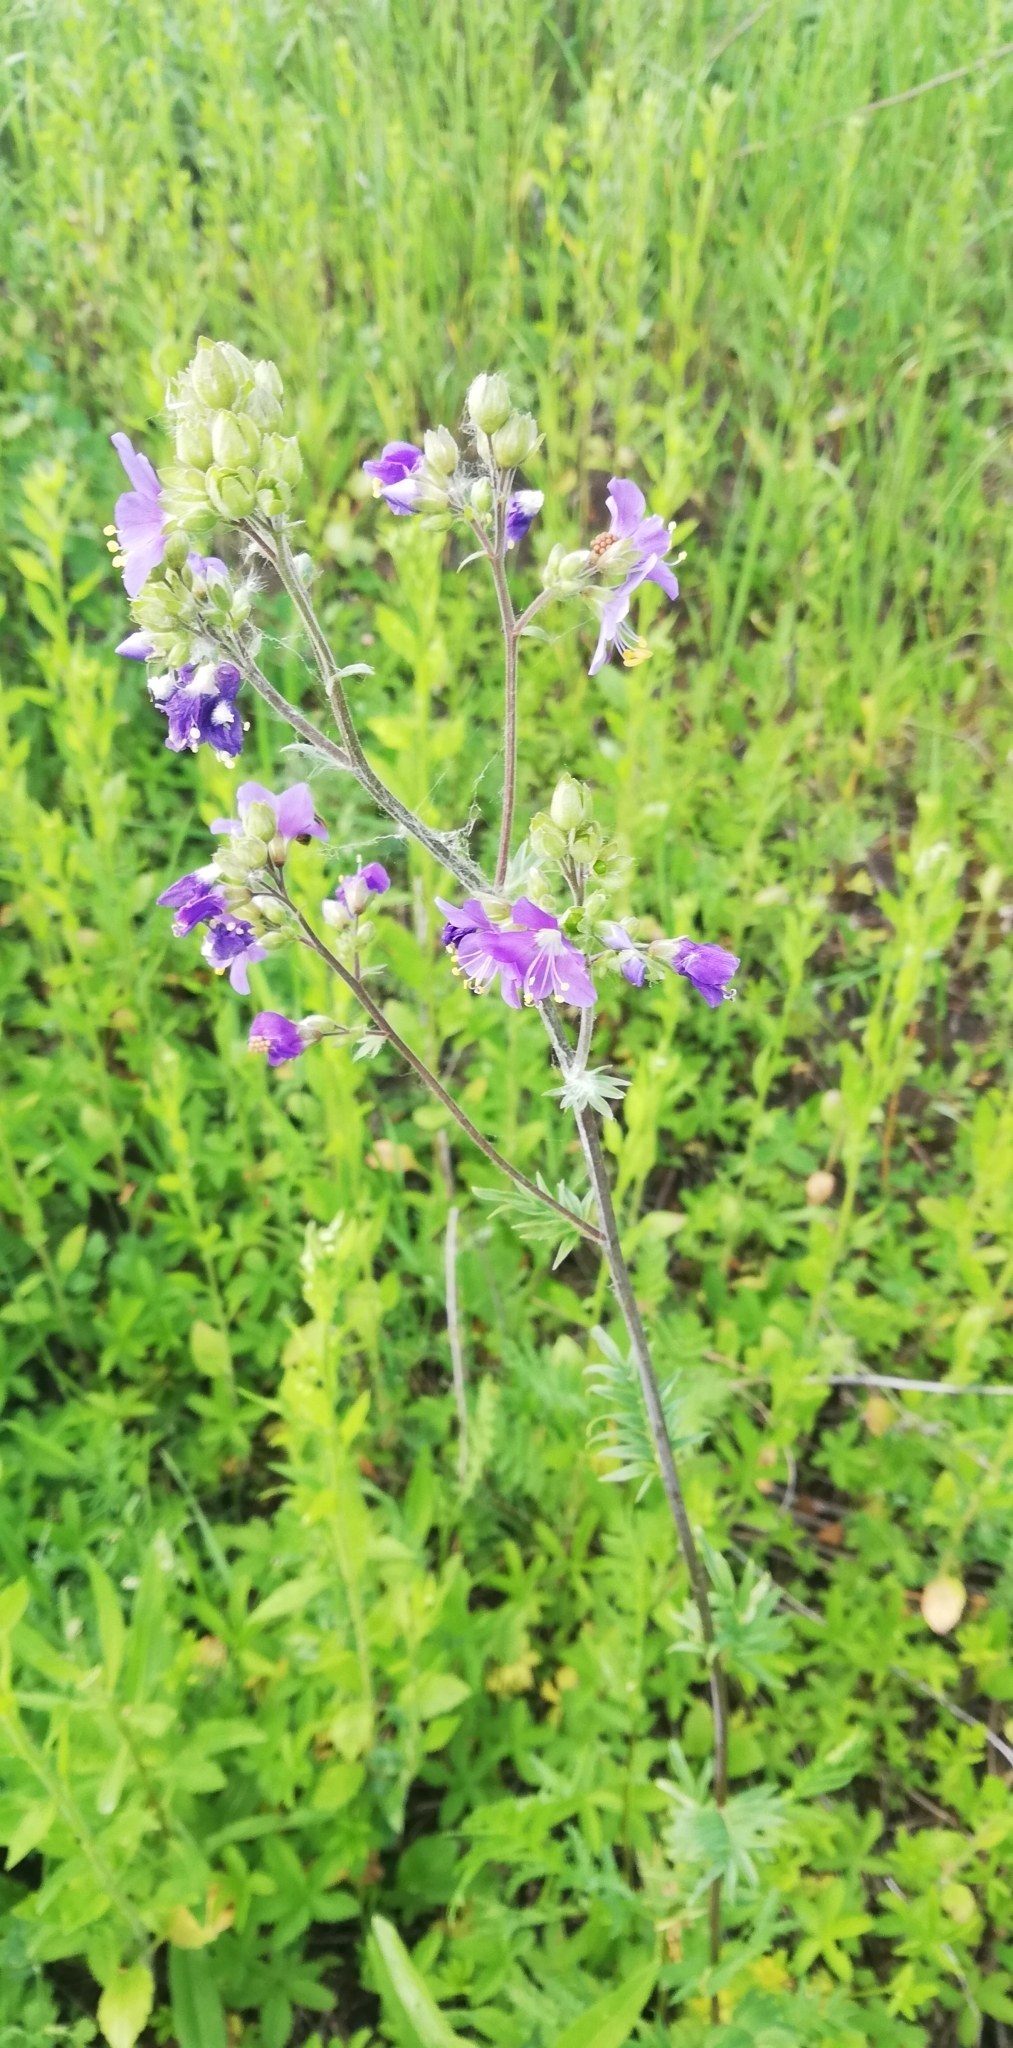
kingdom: Plantae
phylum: Tracheophyta
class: Magnoliopsida
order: Ericales
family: Polemoniaceae
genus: Polemonium
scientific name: Polemonium caeruleum
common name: Jacob's-ladder
